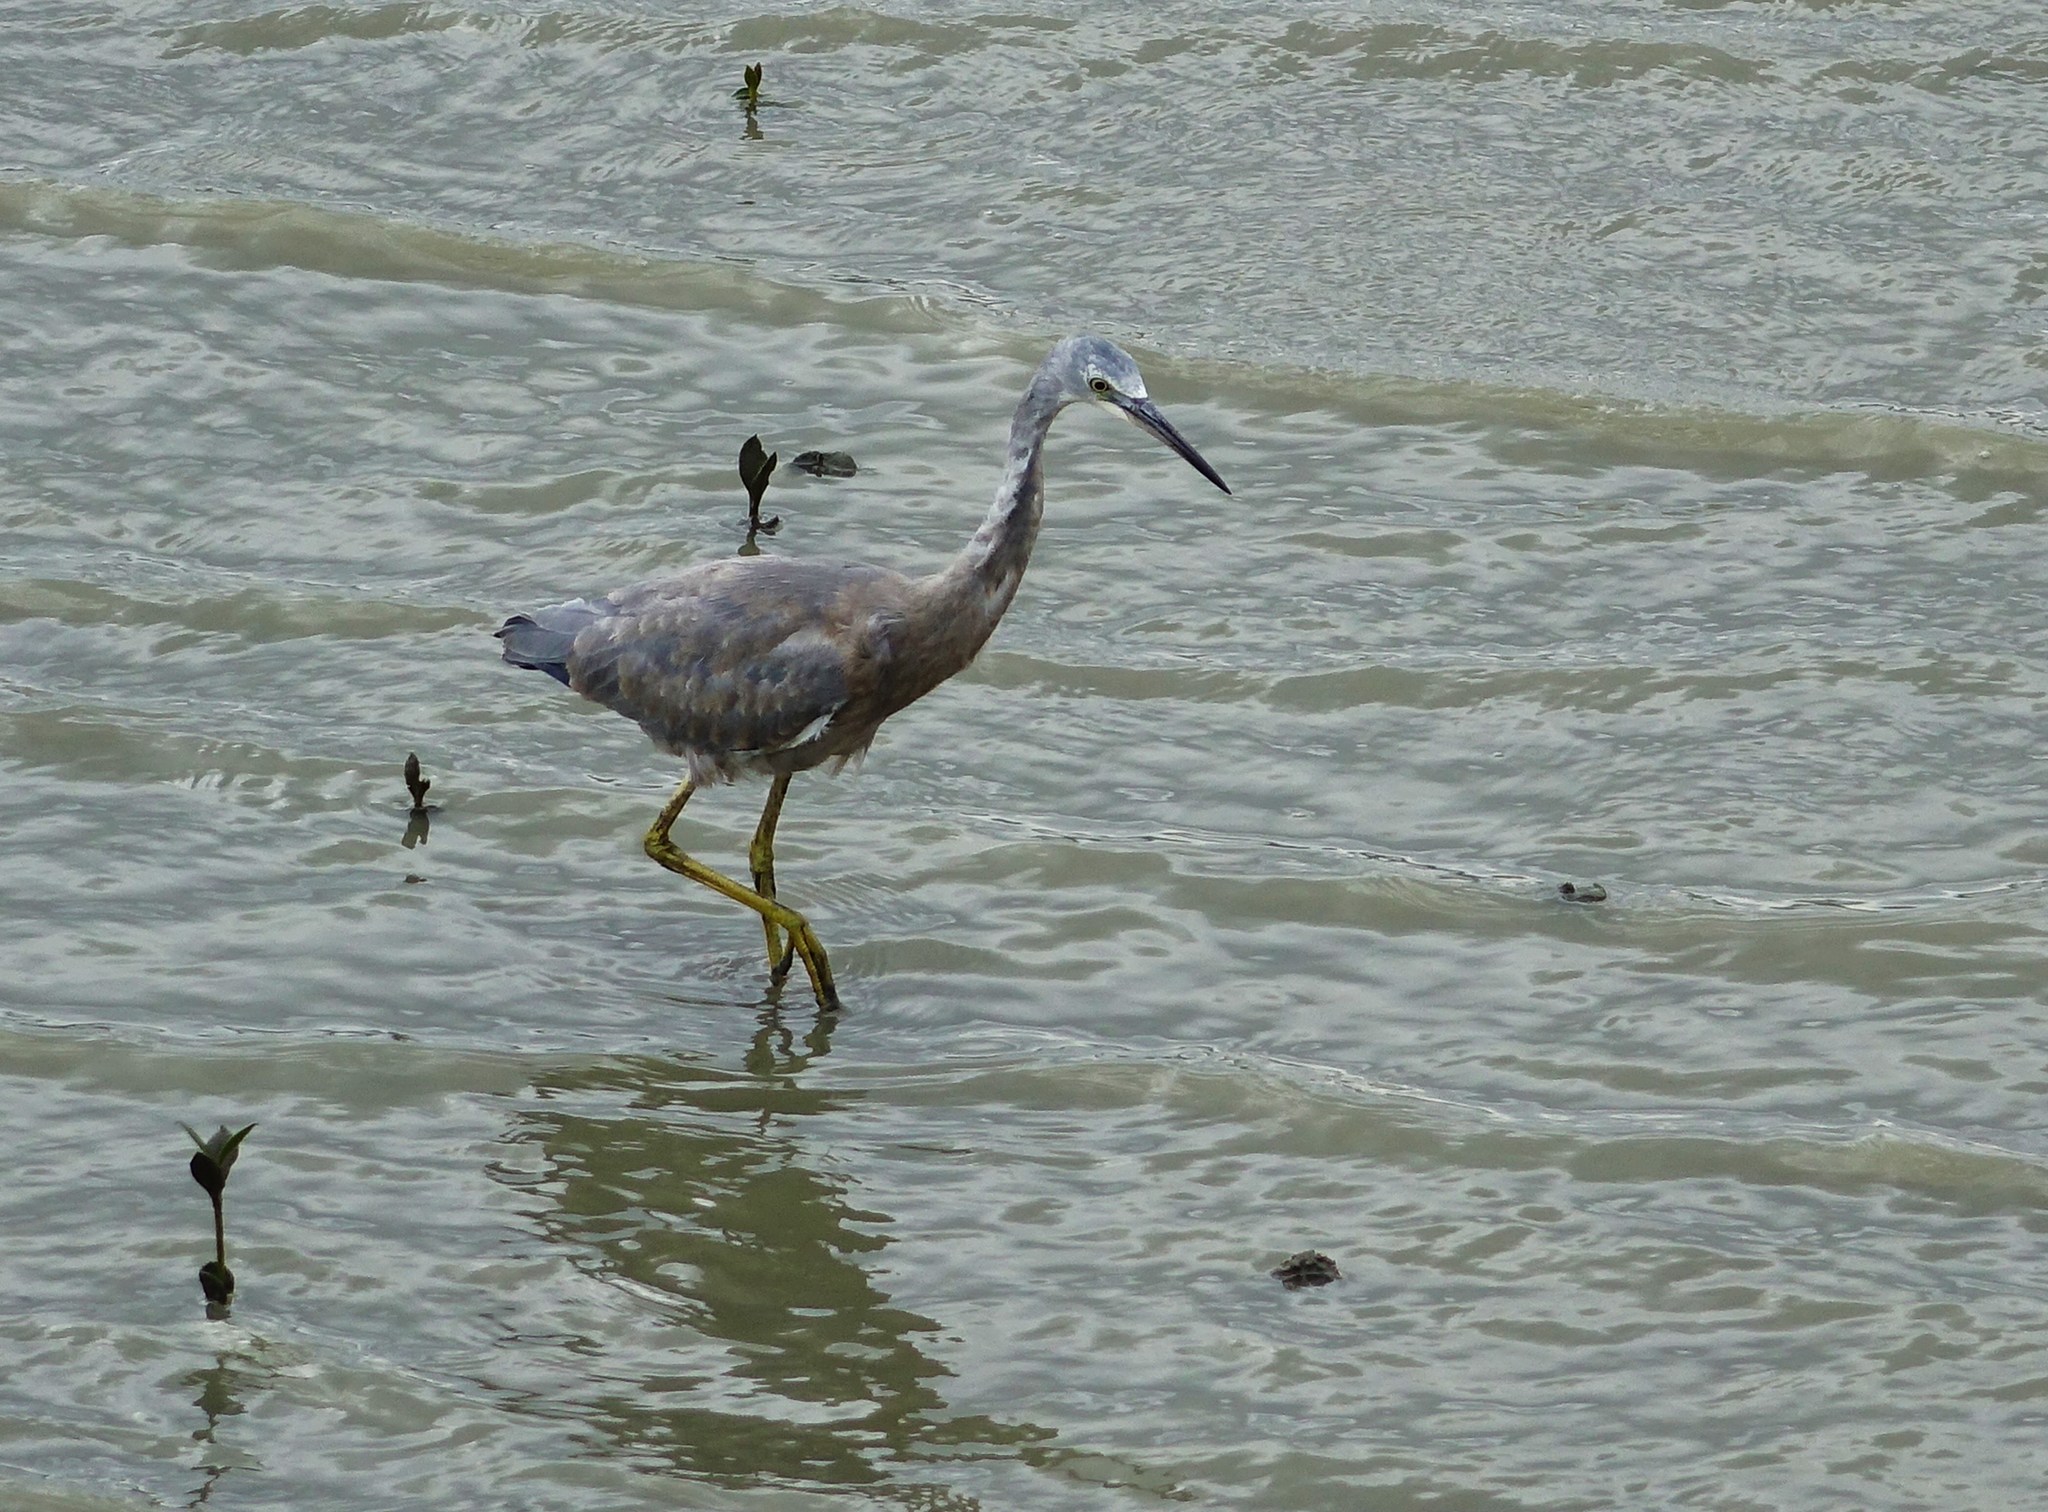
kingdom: Animalia
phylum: Chordata
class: Aves
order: Pelecaniformes
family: Ardeidae
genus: Egretta
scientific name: Egretta novaehollandiae
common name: White-faced heron
